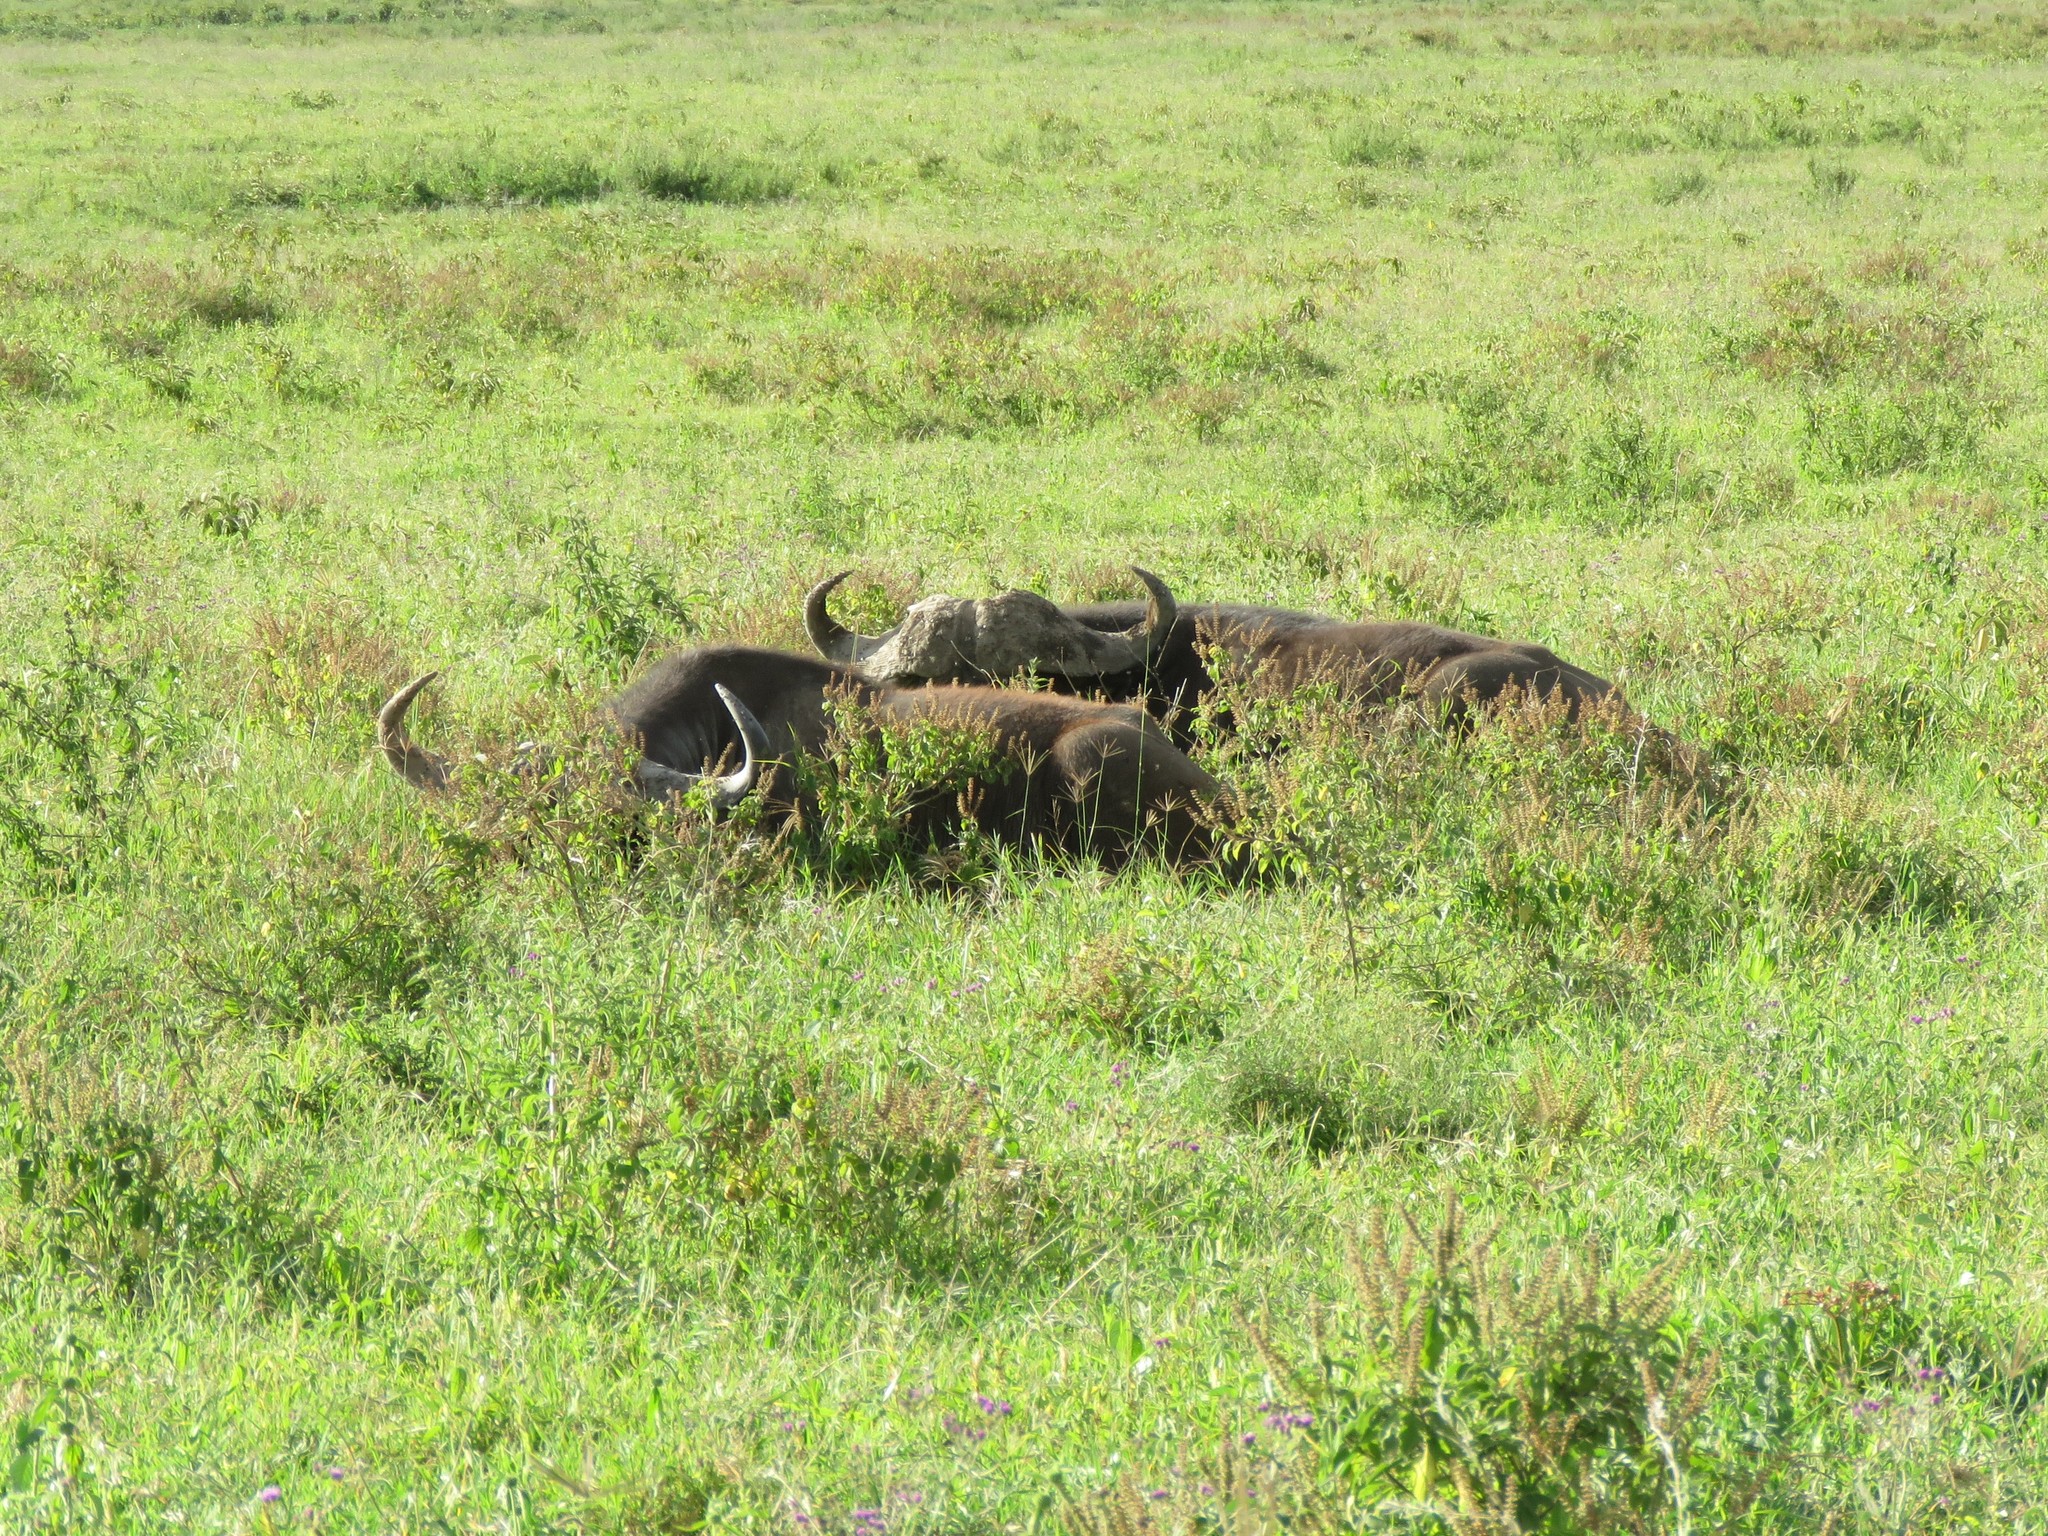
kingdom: Animalia
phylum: Chordata
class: Mammalia
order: Artiodactyla
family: Bovidae
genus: Syncerus
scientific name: Syncerus caffer
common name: African buffalo
